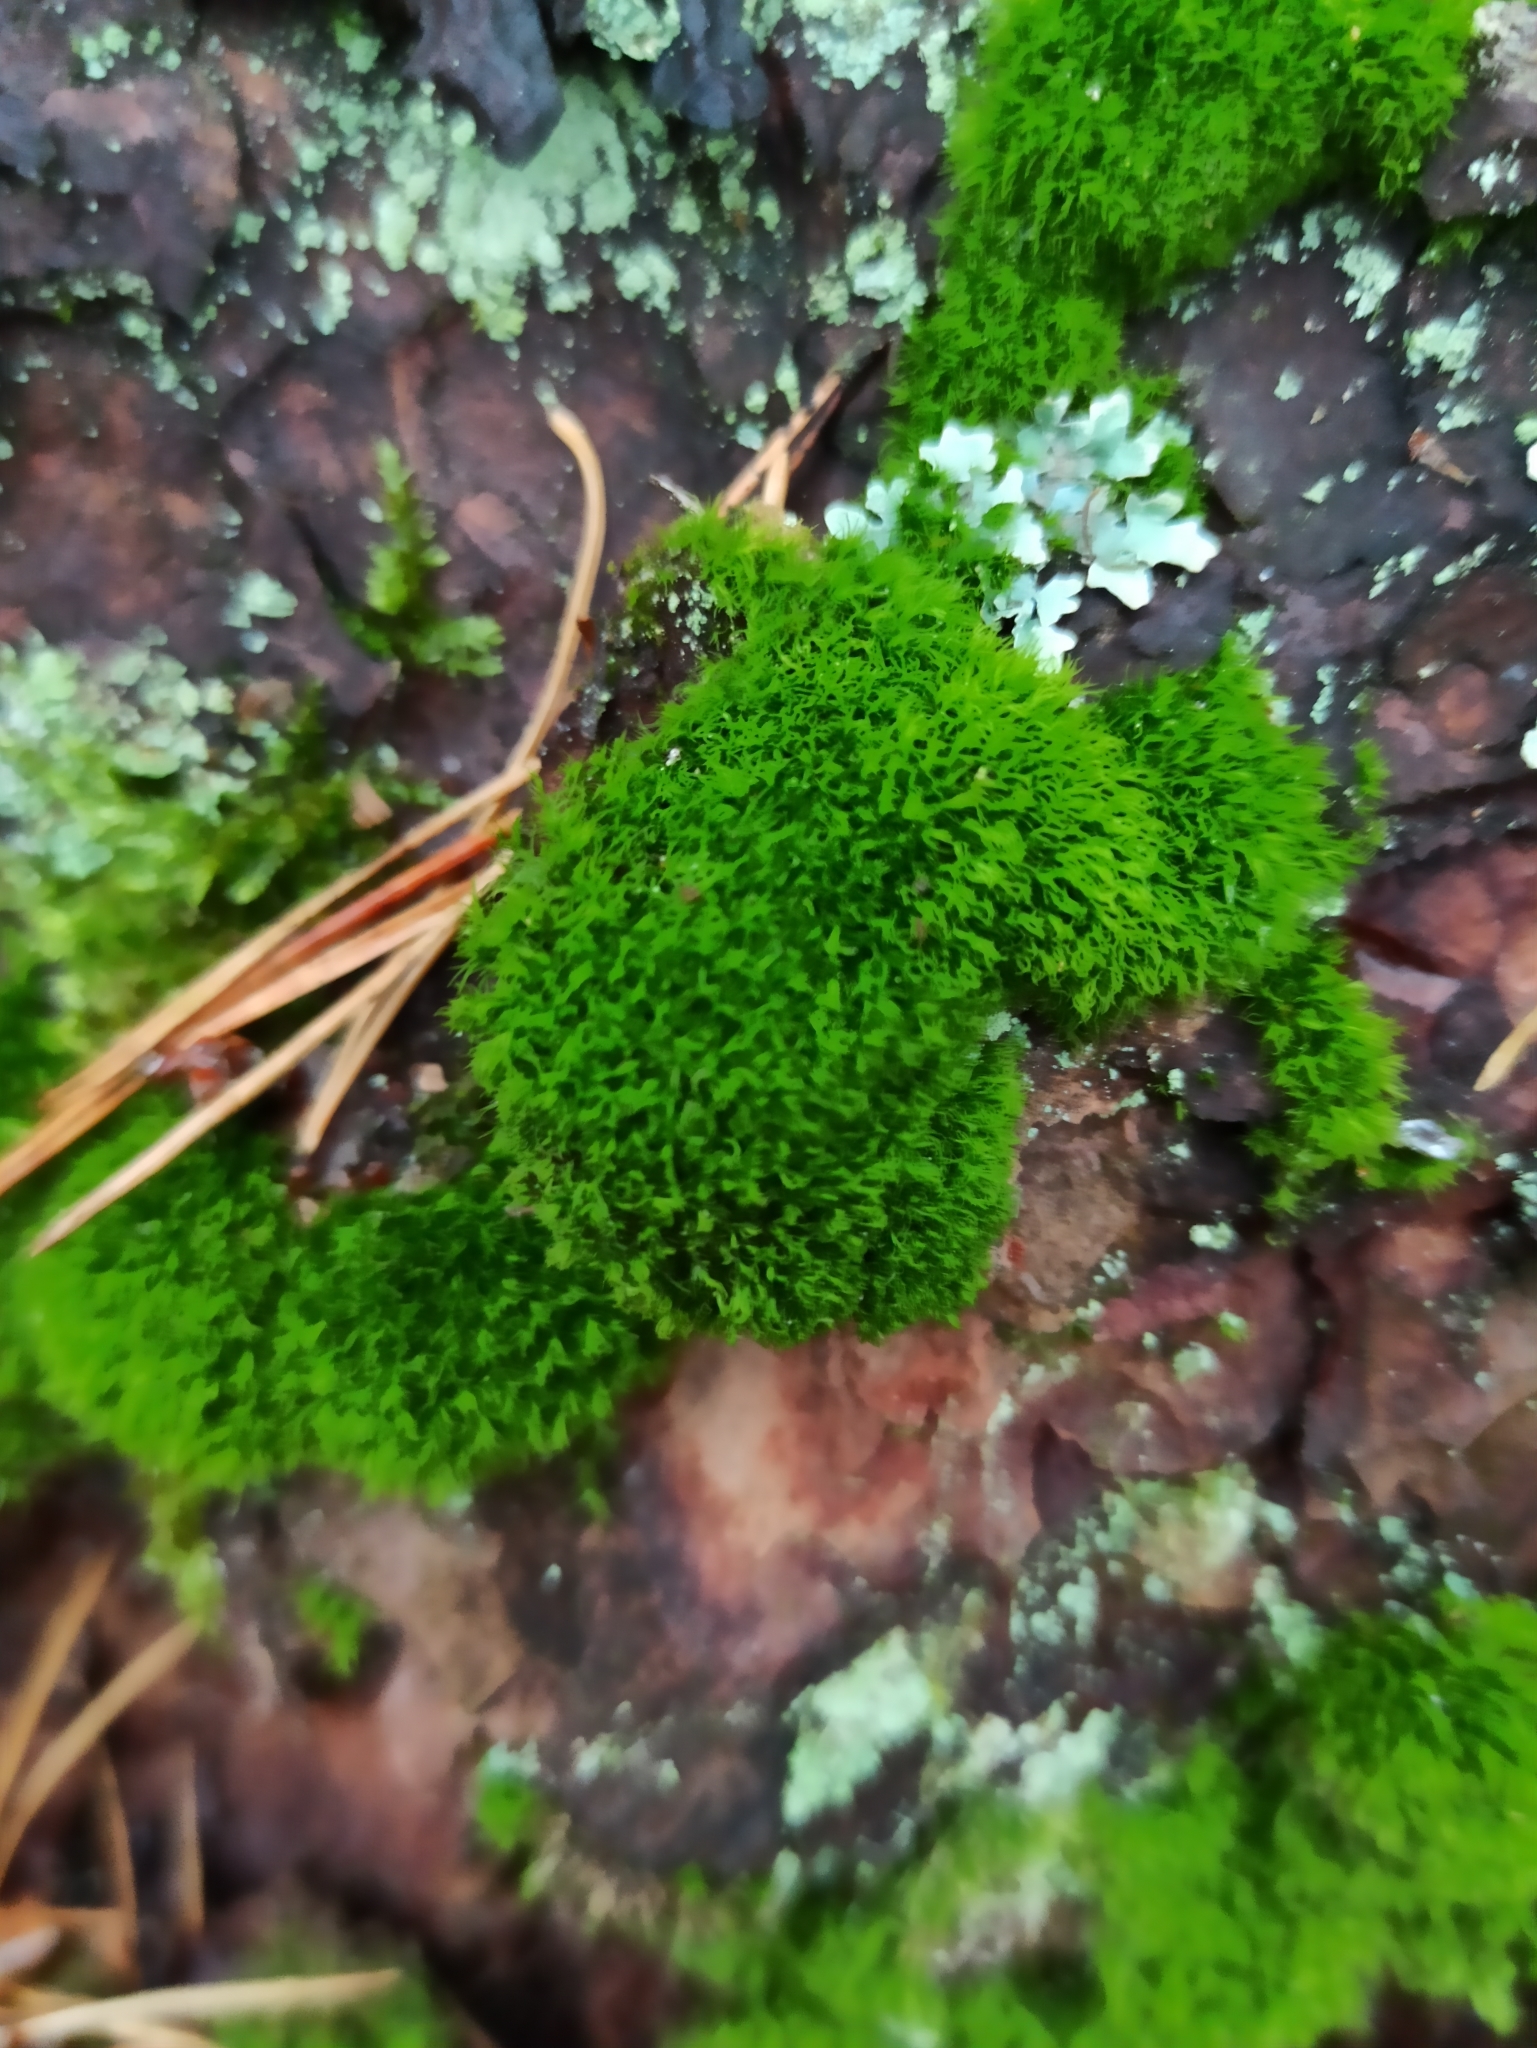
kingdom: Plantae
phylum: Bryophyta
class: Bryopsida
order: Dicranales
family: Dicranaceae
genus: Orthodicranum
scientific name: Orthodicranum montanum
